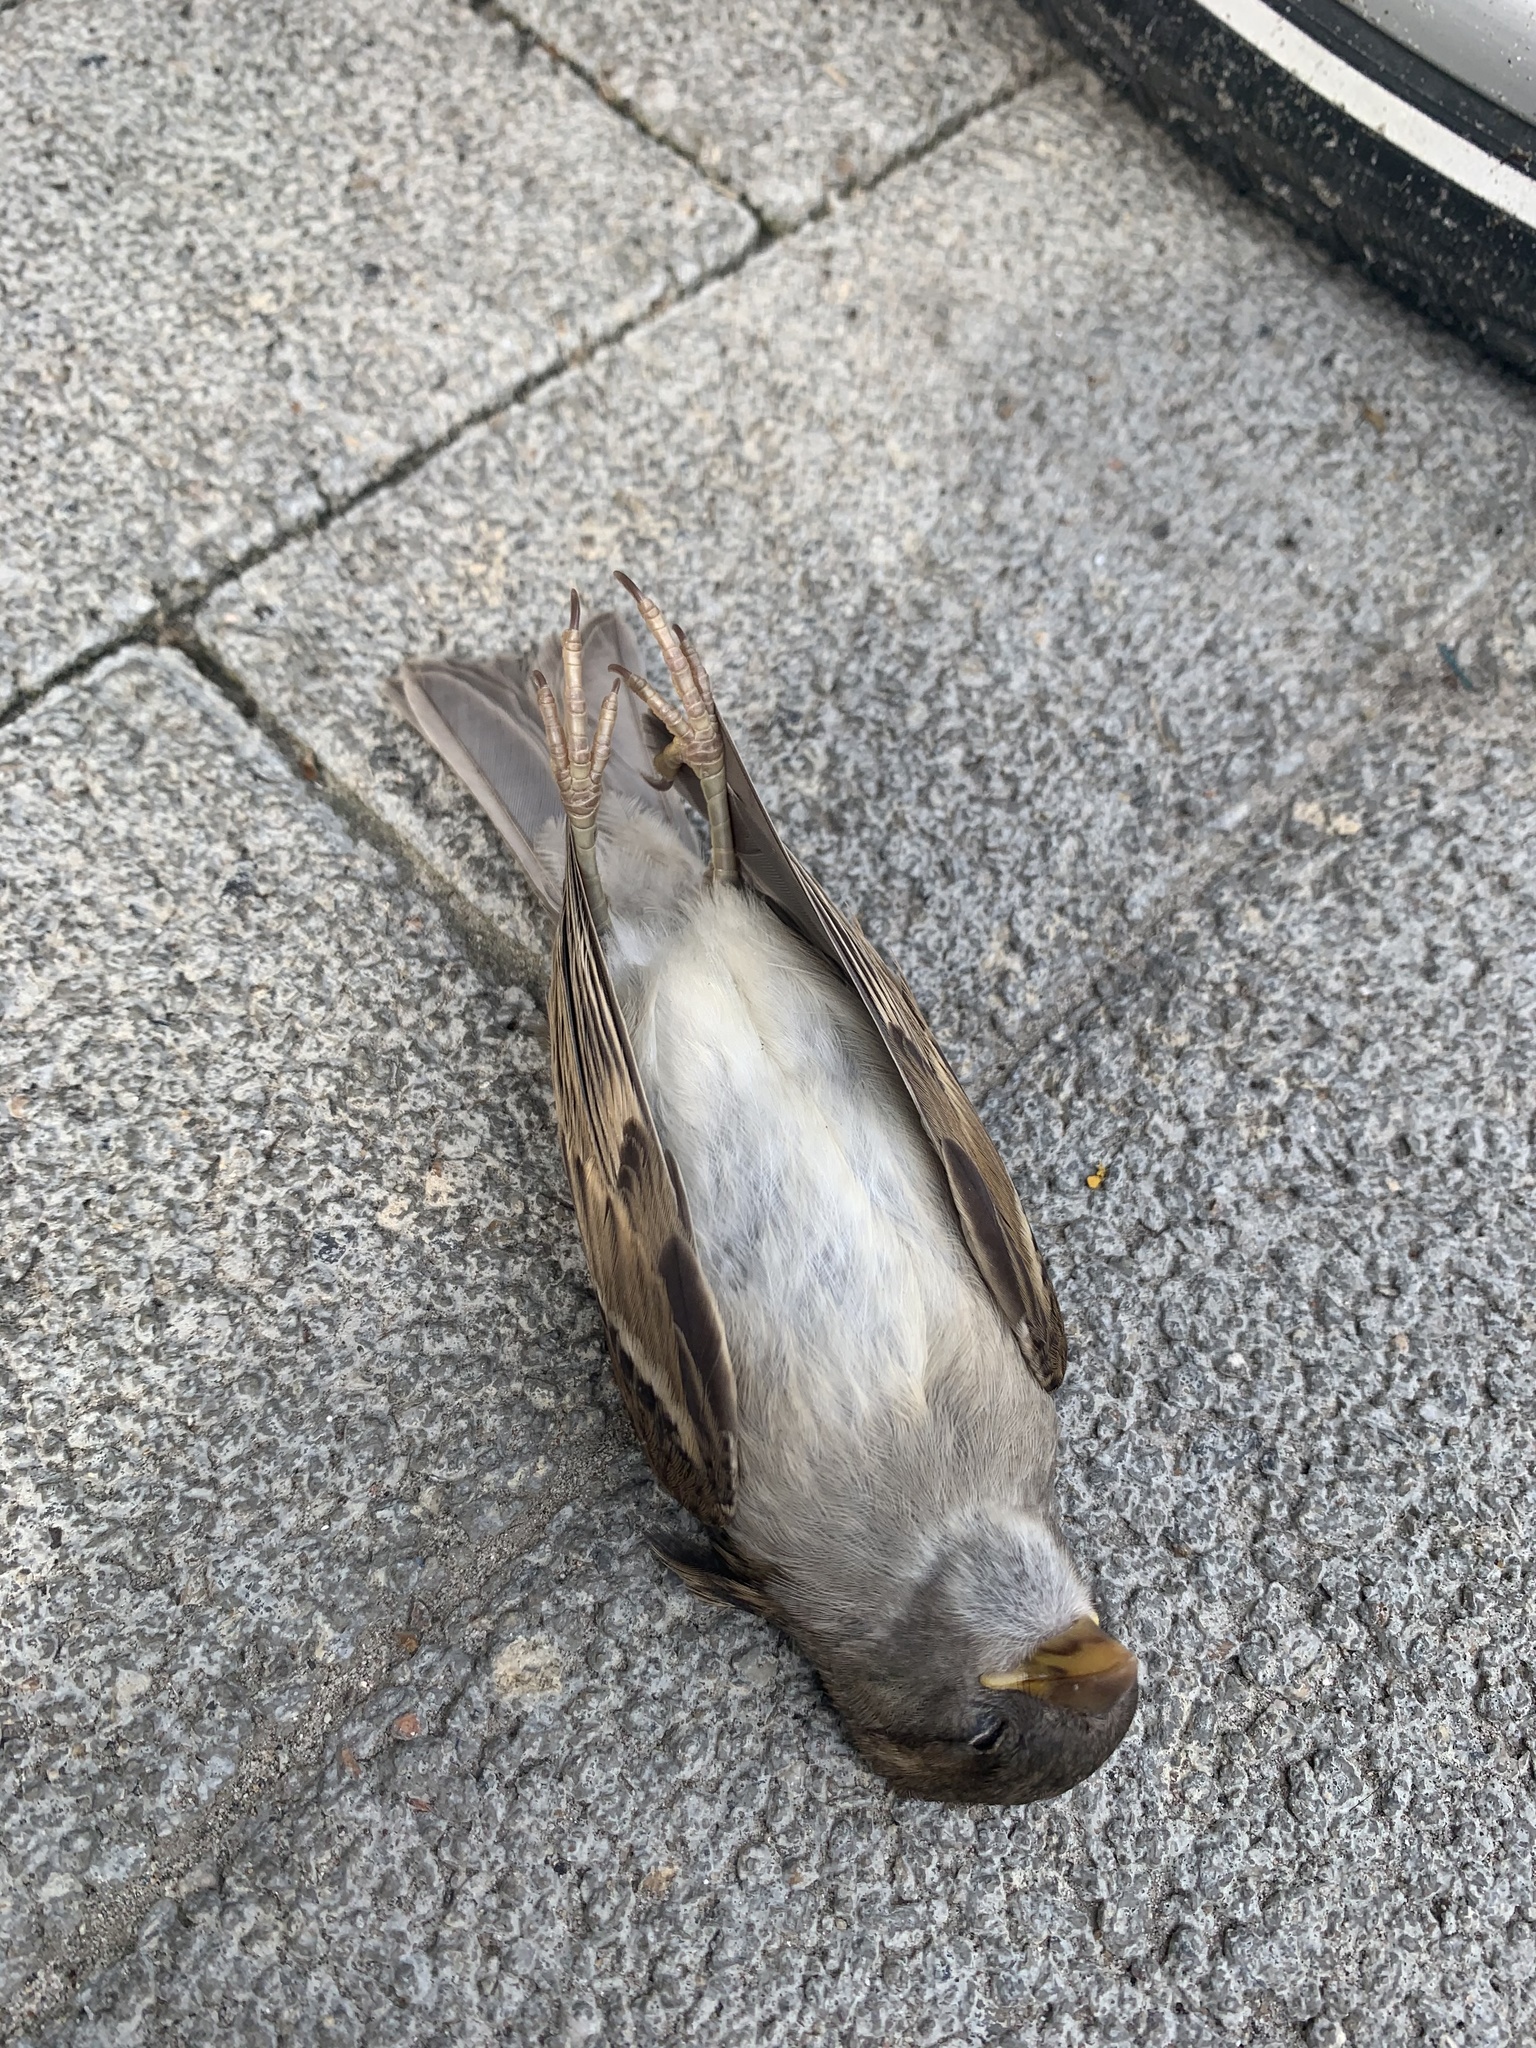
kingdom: Animalia
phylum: Chordata
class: Aves
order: Passeriformes
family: Passeridae
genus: Passer
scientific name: Passer domesticus
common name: House sparrow
